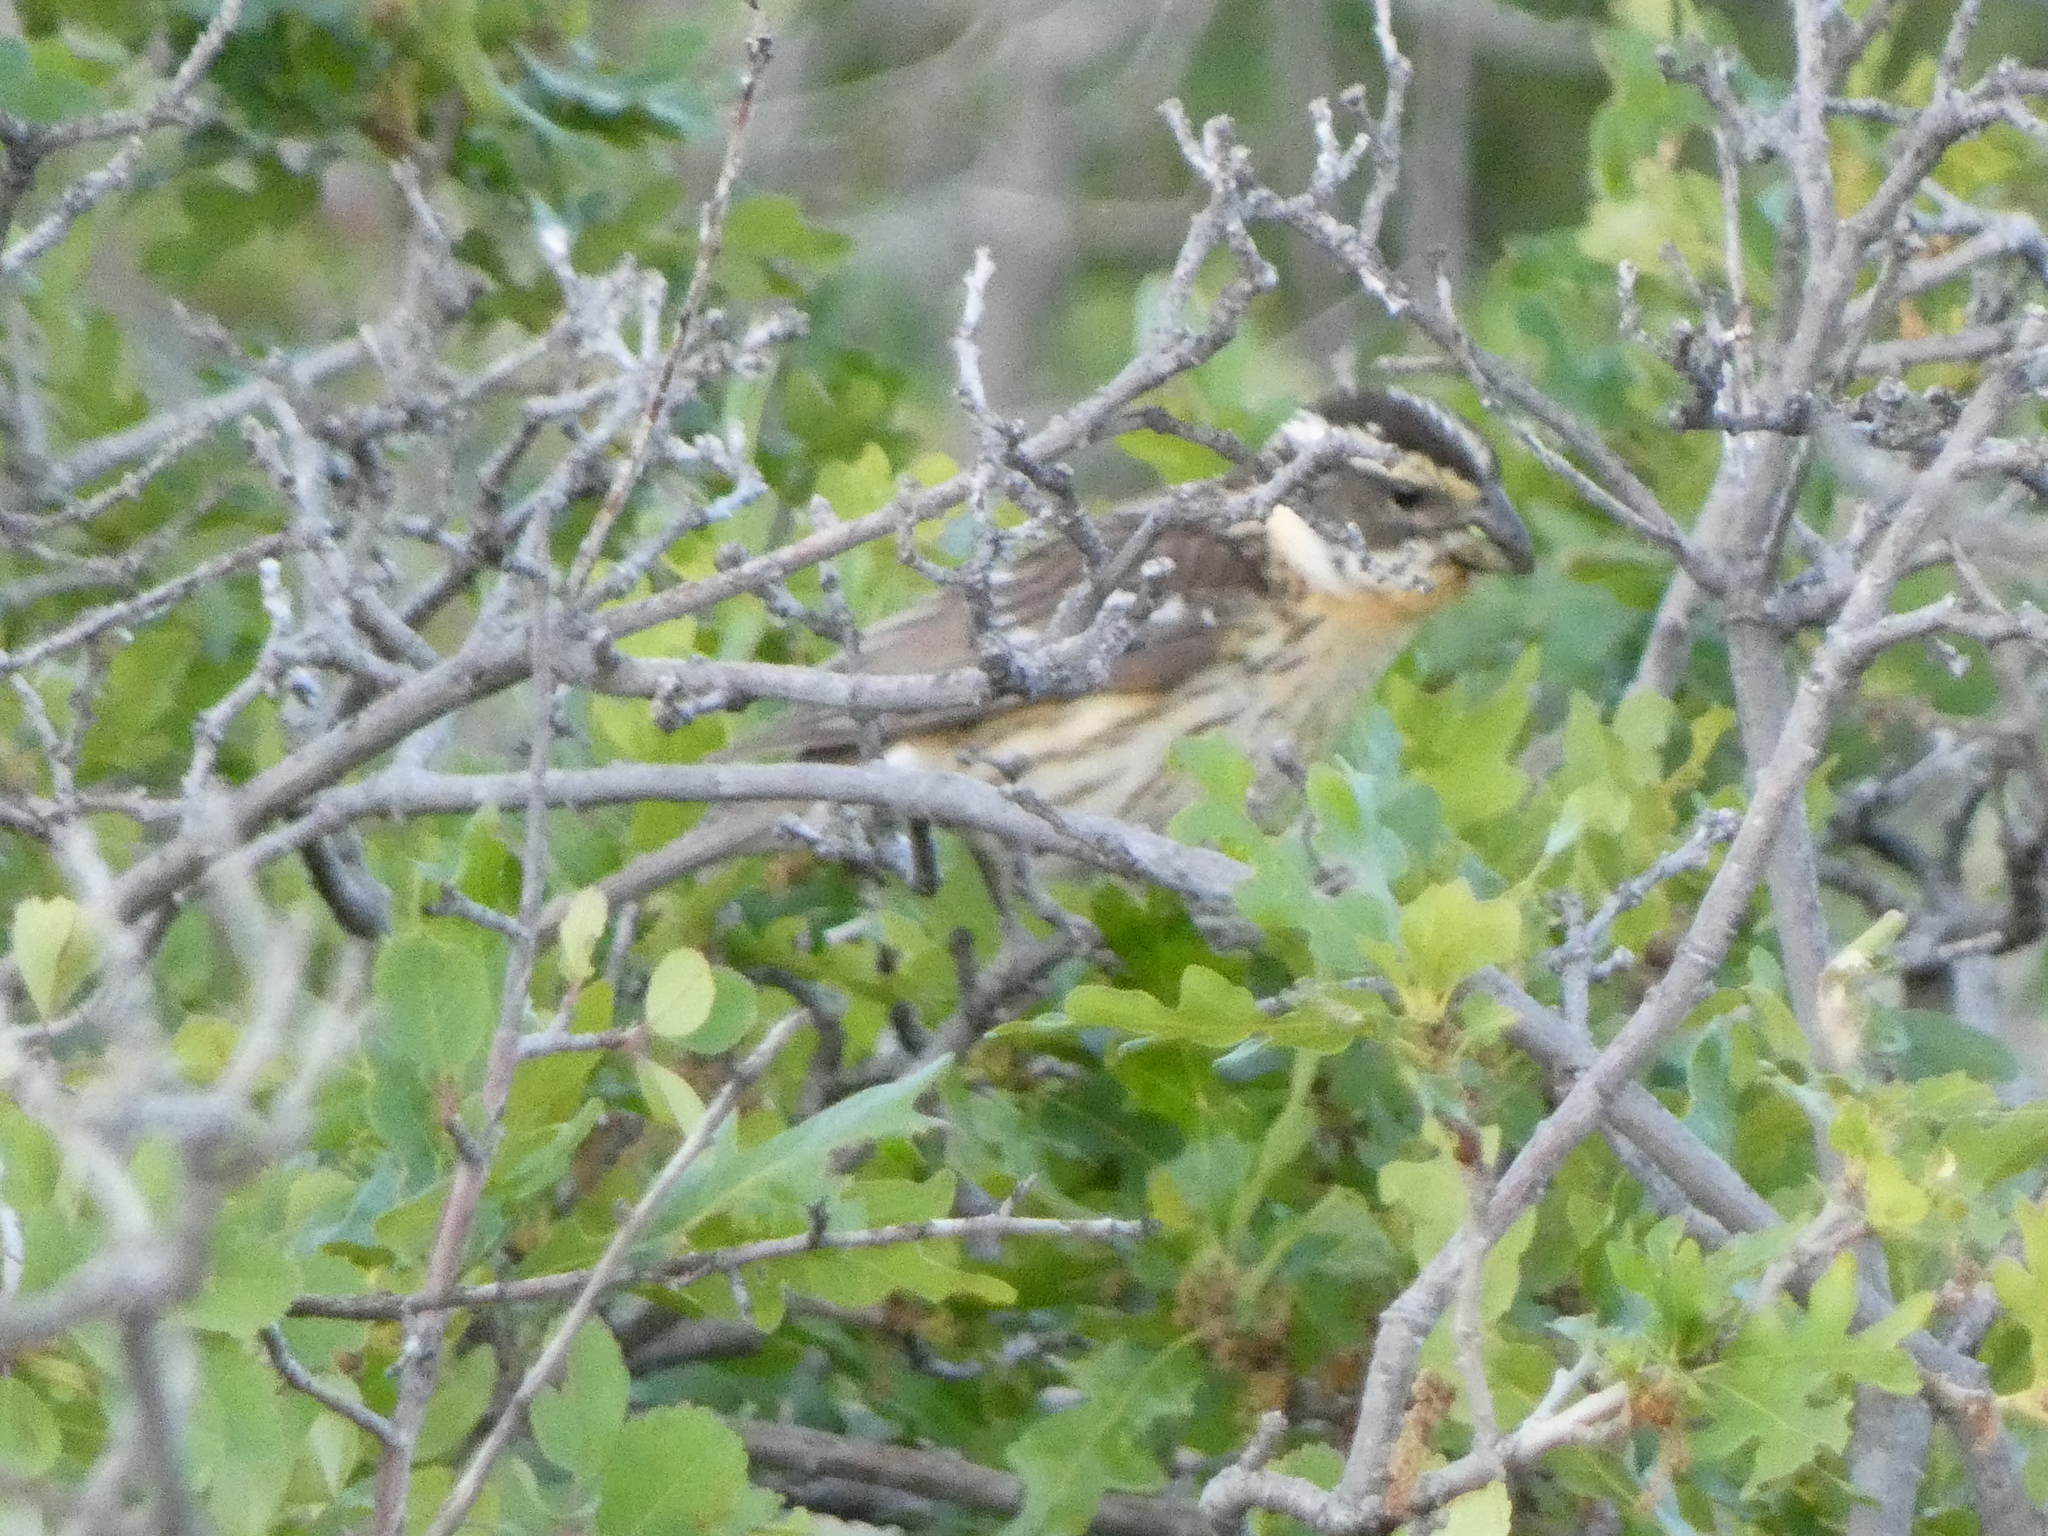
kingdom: Animalia
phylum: Chordata
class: Aves
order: Passeriformes
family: Cardinalidae
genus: Pheucticus
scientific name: Pheucticus melanocephalus
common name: Black-headed grosbeak
